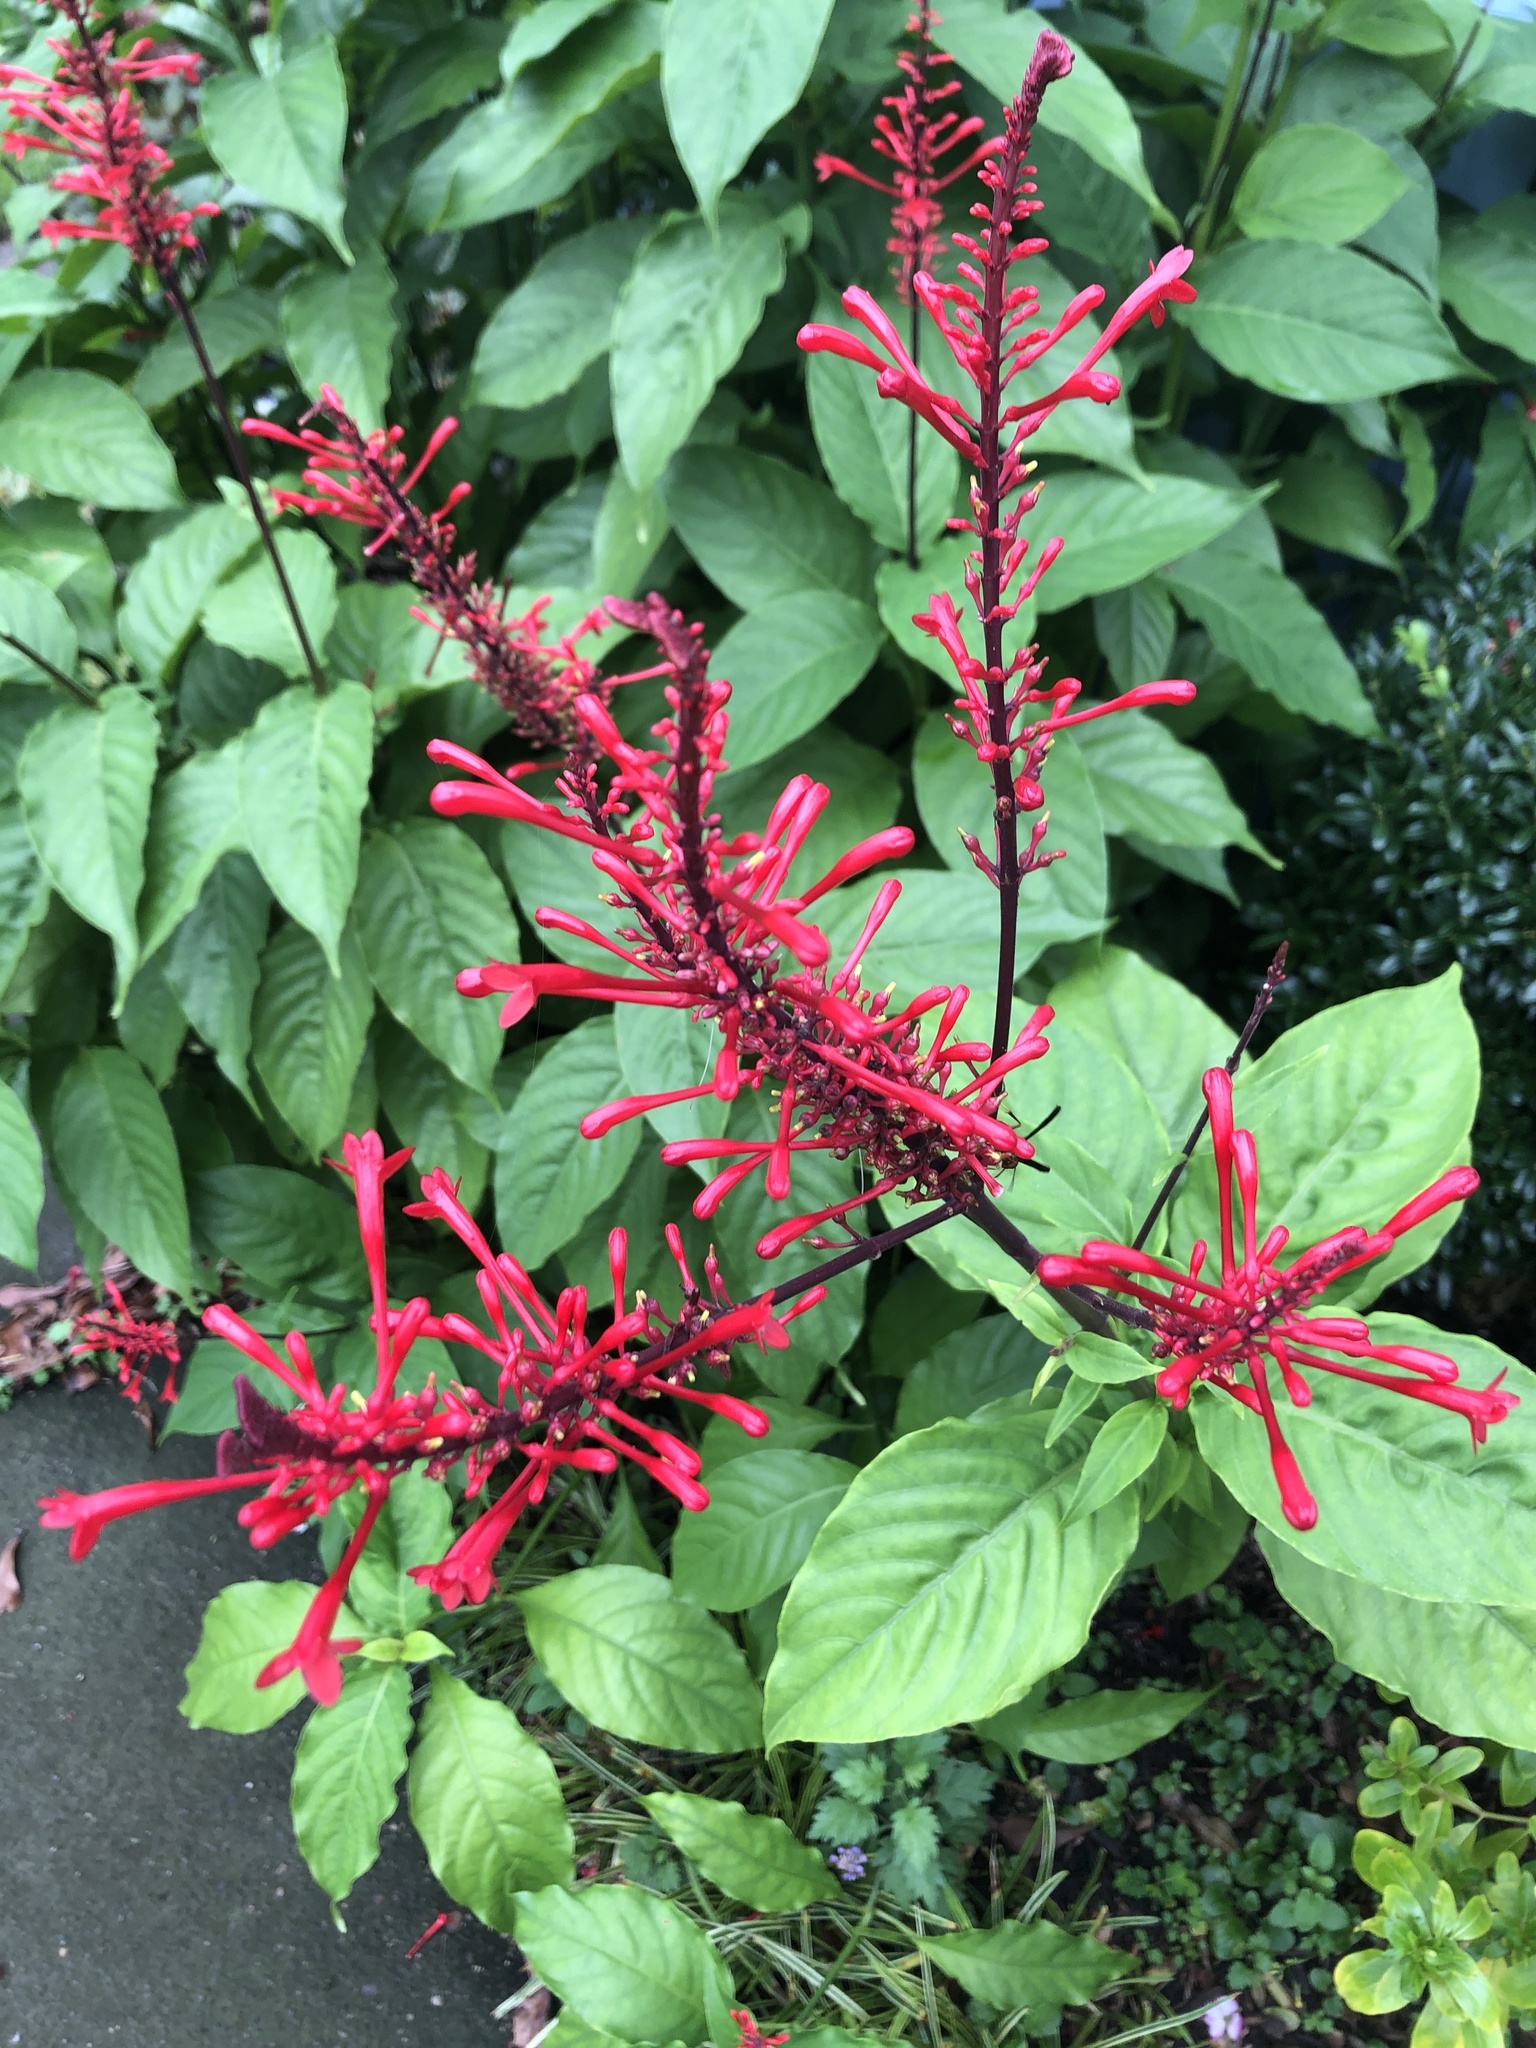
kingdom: Plantae
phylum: Tracheophyta
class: Magnoliopsida
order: Lamiales
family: Acanthaceae
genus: Odontonema
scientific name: Odontonema tubaeforme
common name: Firespike
